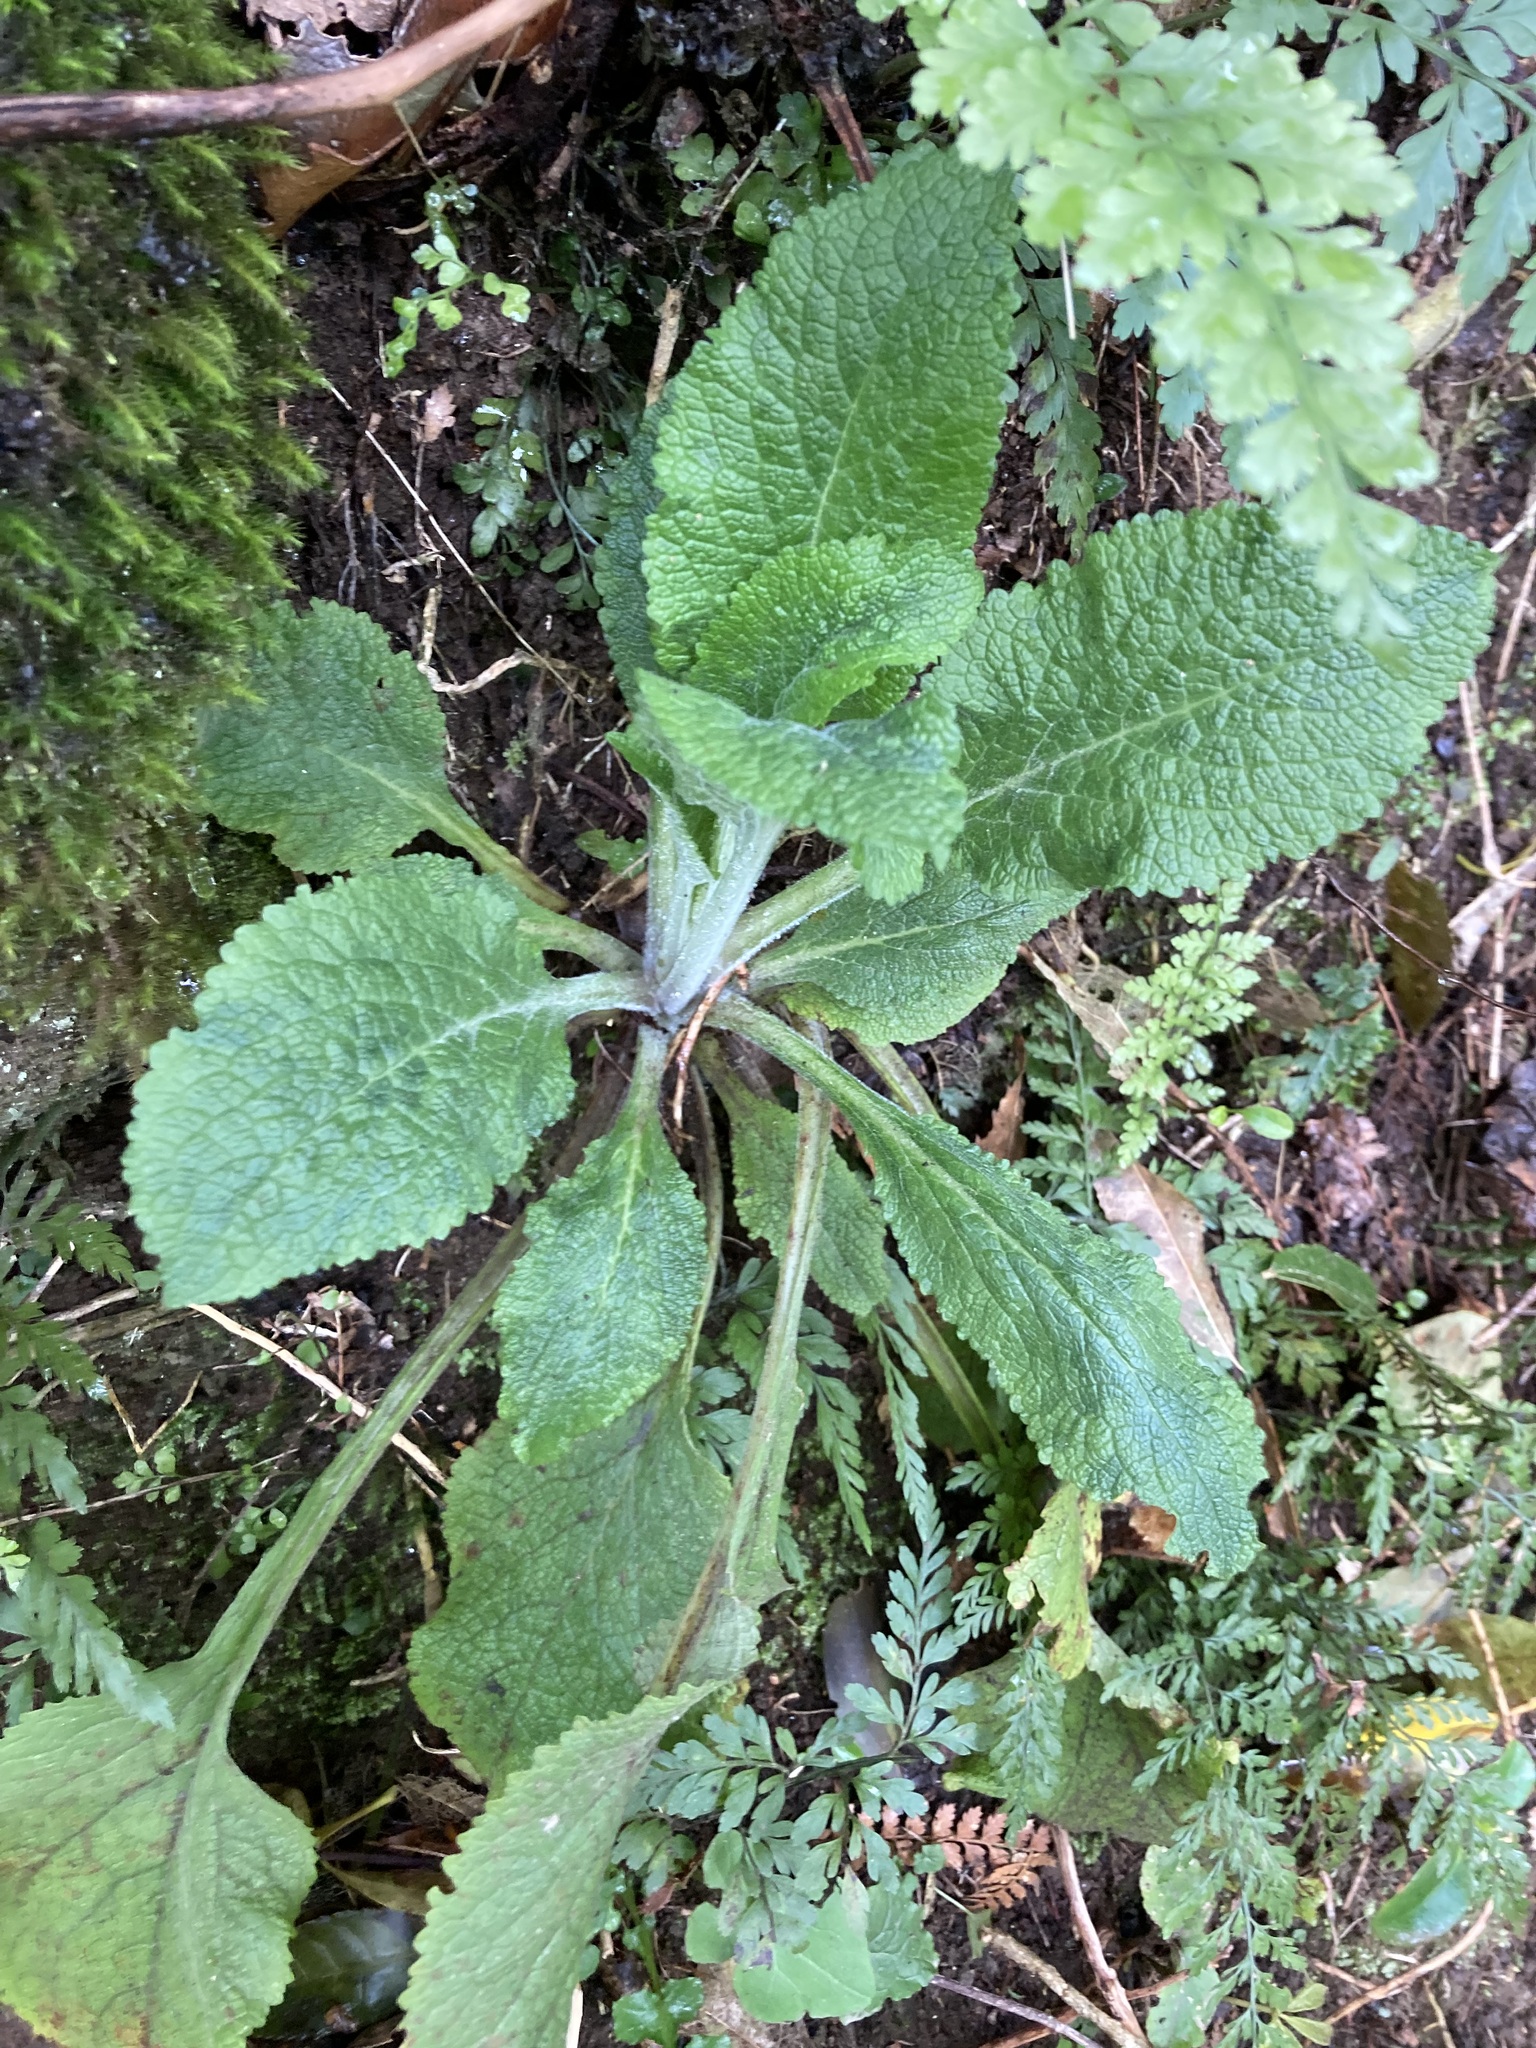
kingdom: Plantae
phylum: Tracheophyta
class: Magnoliopsida
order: Lamiales
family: Plantaginaceae
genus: Digitalis
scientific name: Digitalis purpurea
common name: Foxglove
